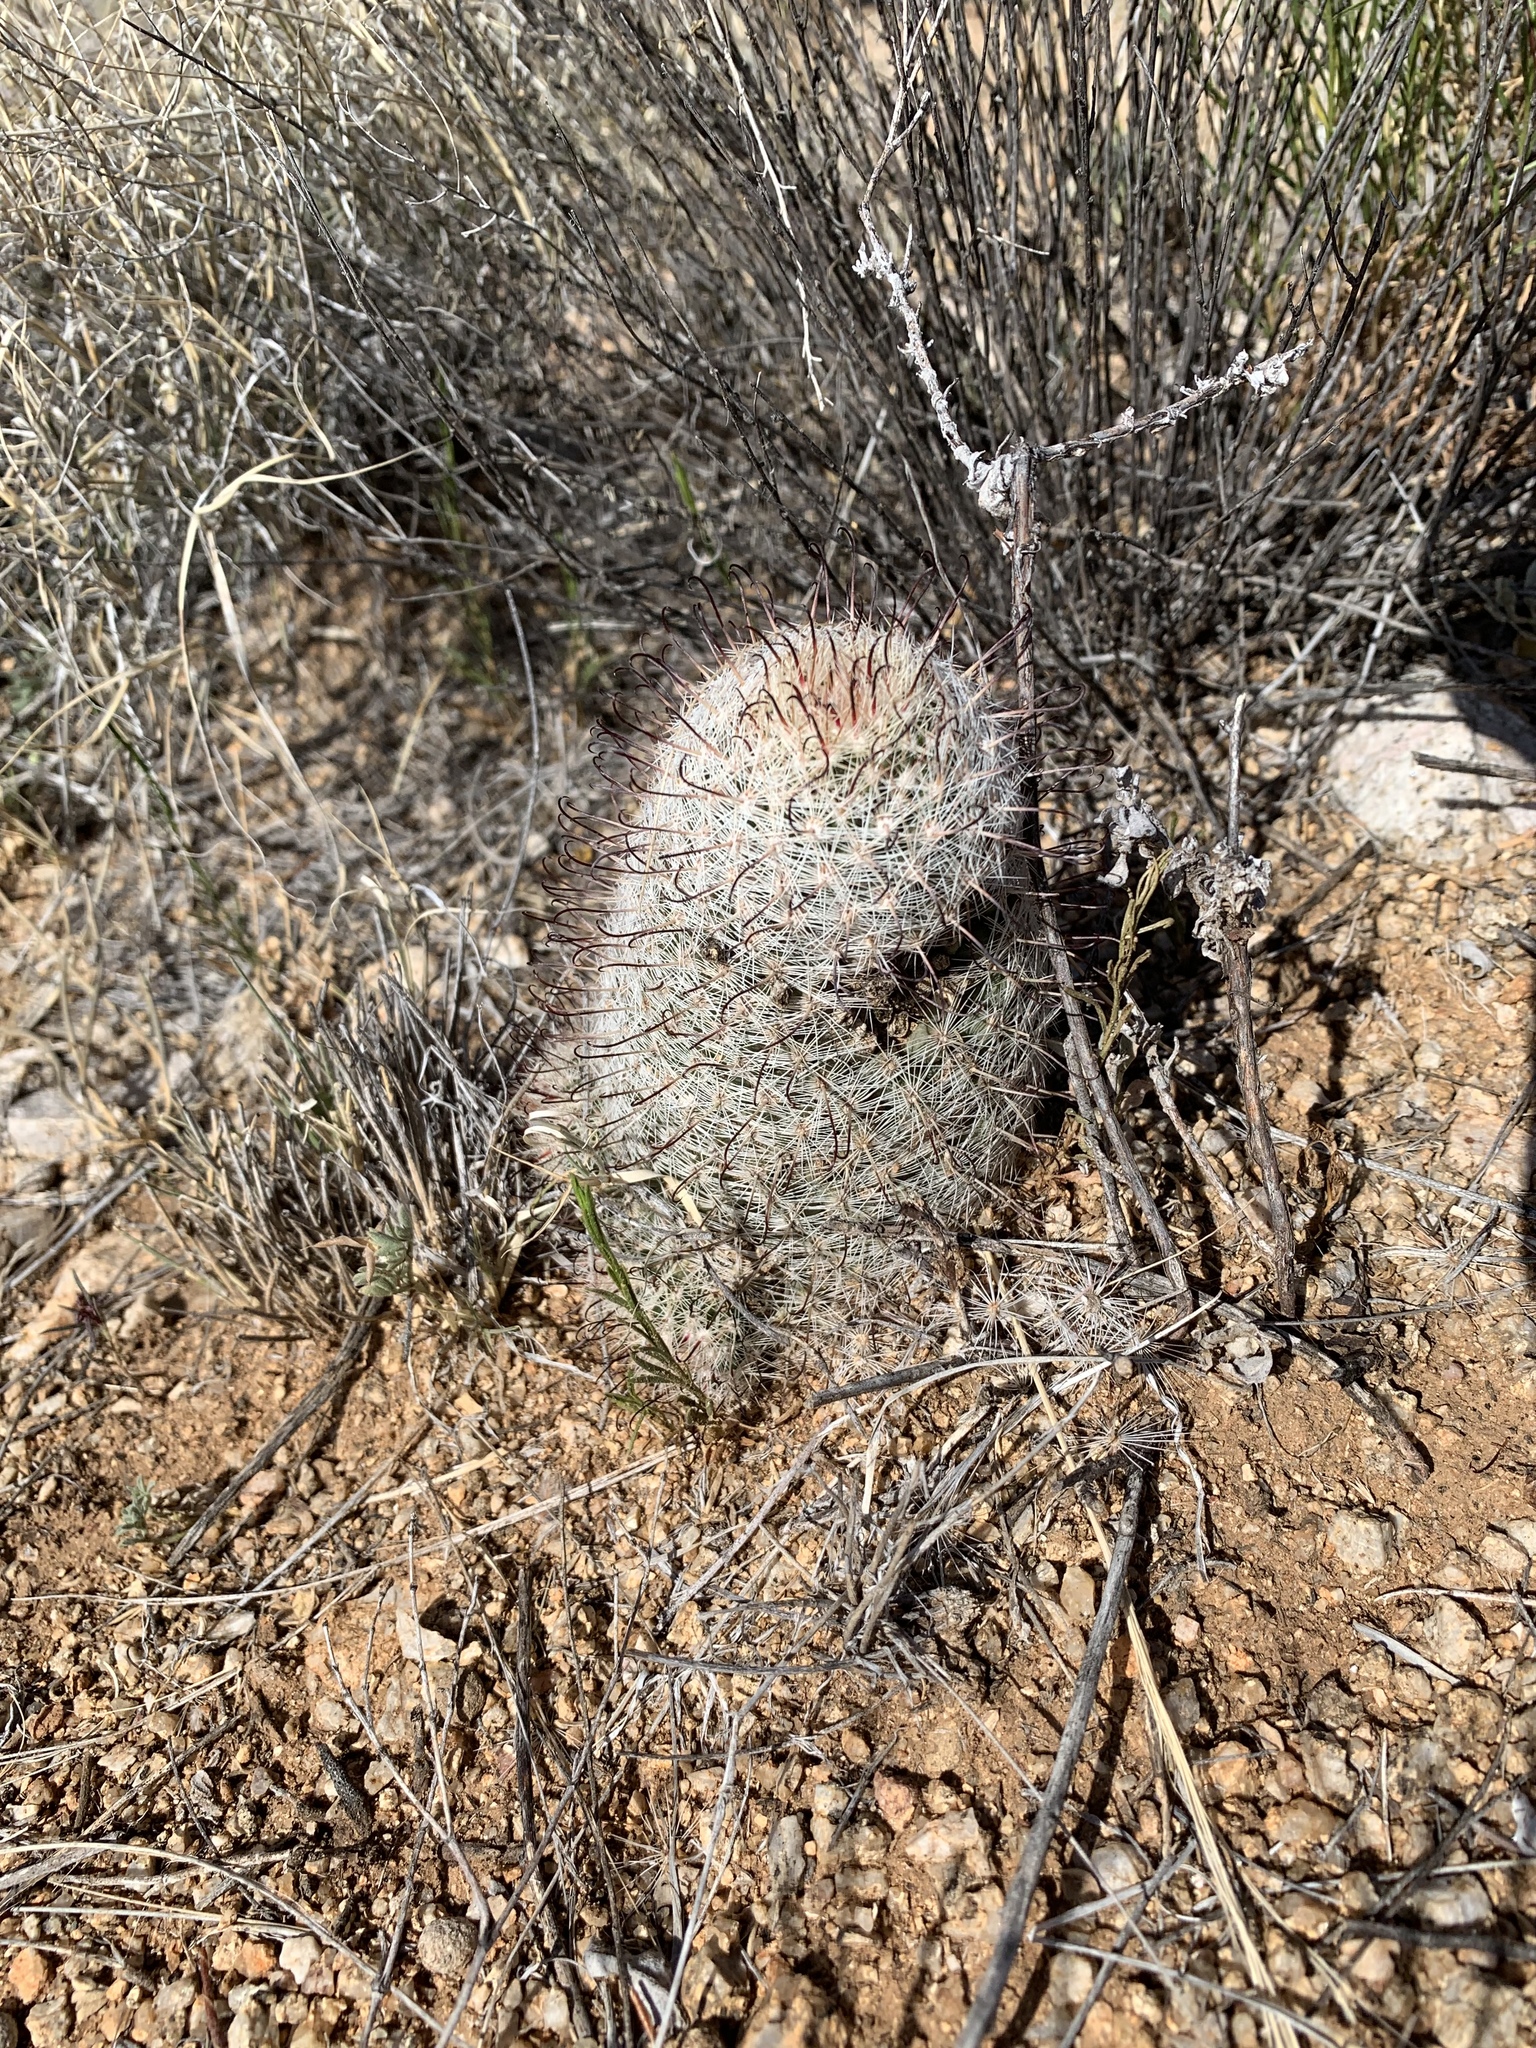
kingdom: Plantae
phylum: Tracheophyta
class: Magnoliopsida
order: Caryophyllales
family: Cactaceae
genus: Cochemiea
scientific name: Cochemiea grahamii
